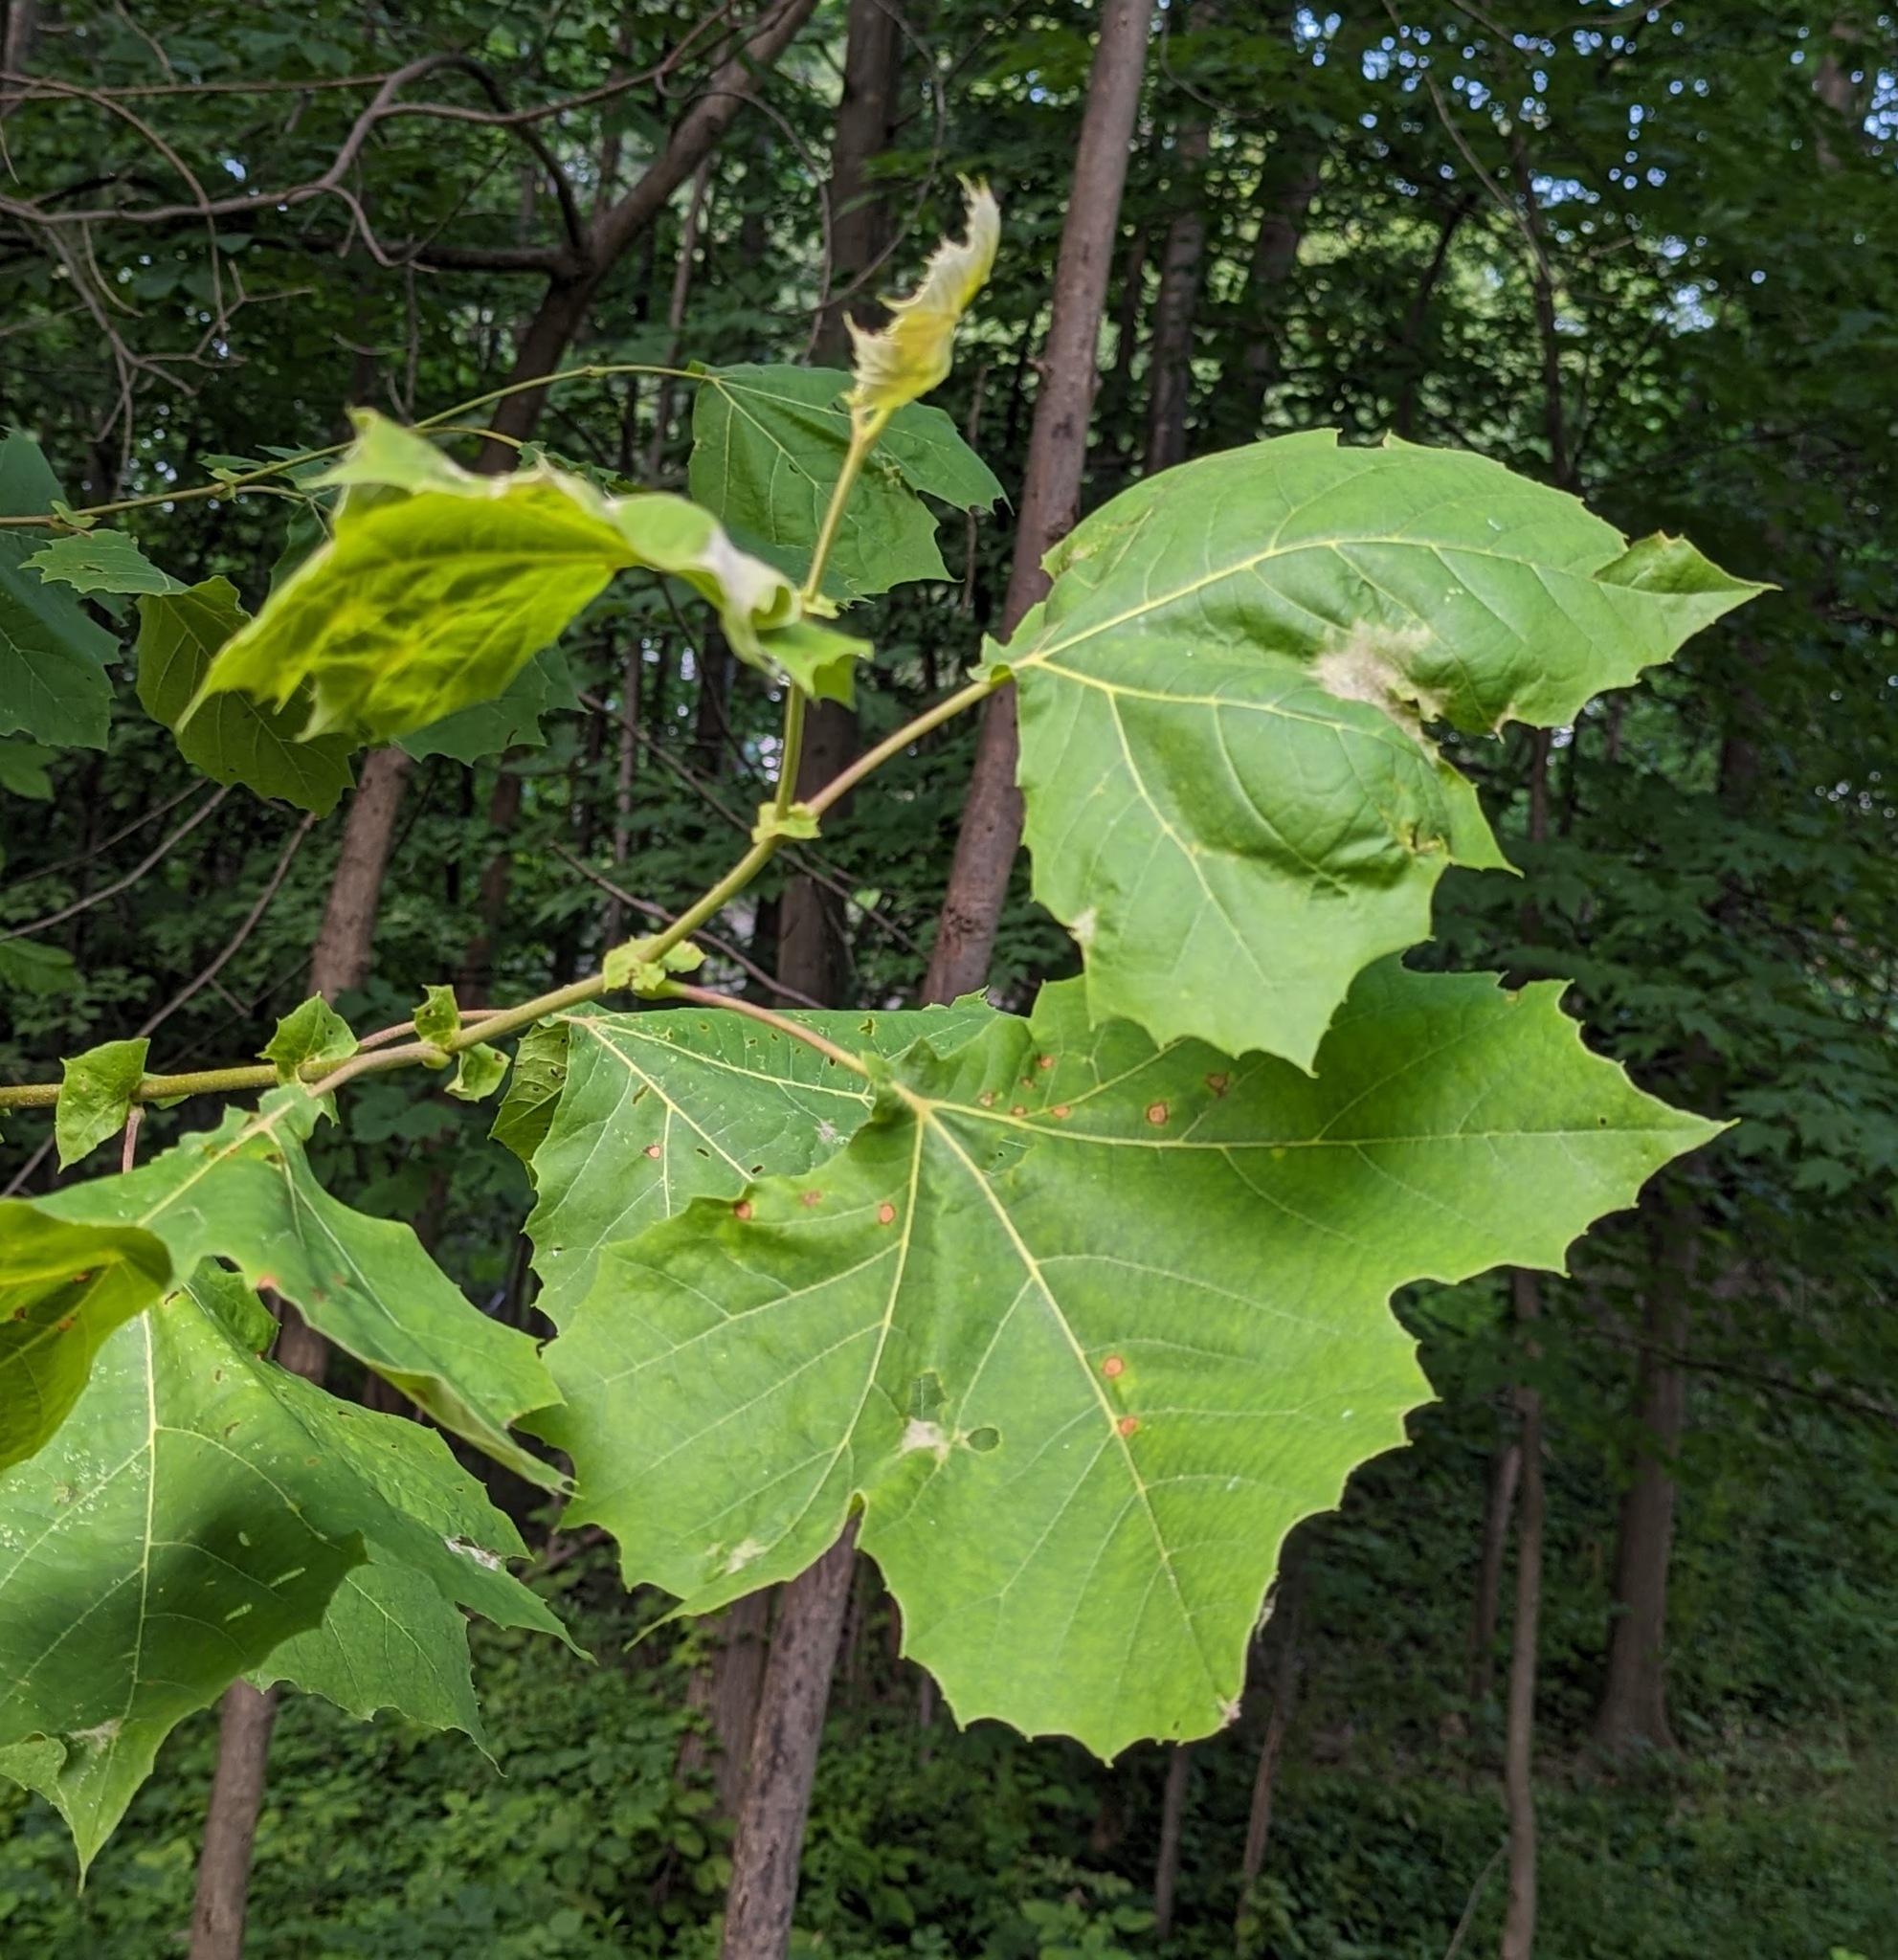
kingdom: Plantae
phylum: Tracheophyta
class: Magnoliopsida
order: Proteales
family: Platanaceae
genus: Platanus
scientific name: Platanus occidentalis
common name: American sycamore
